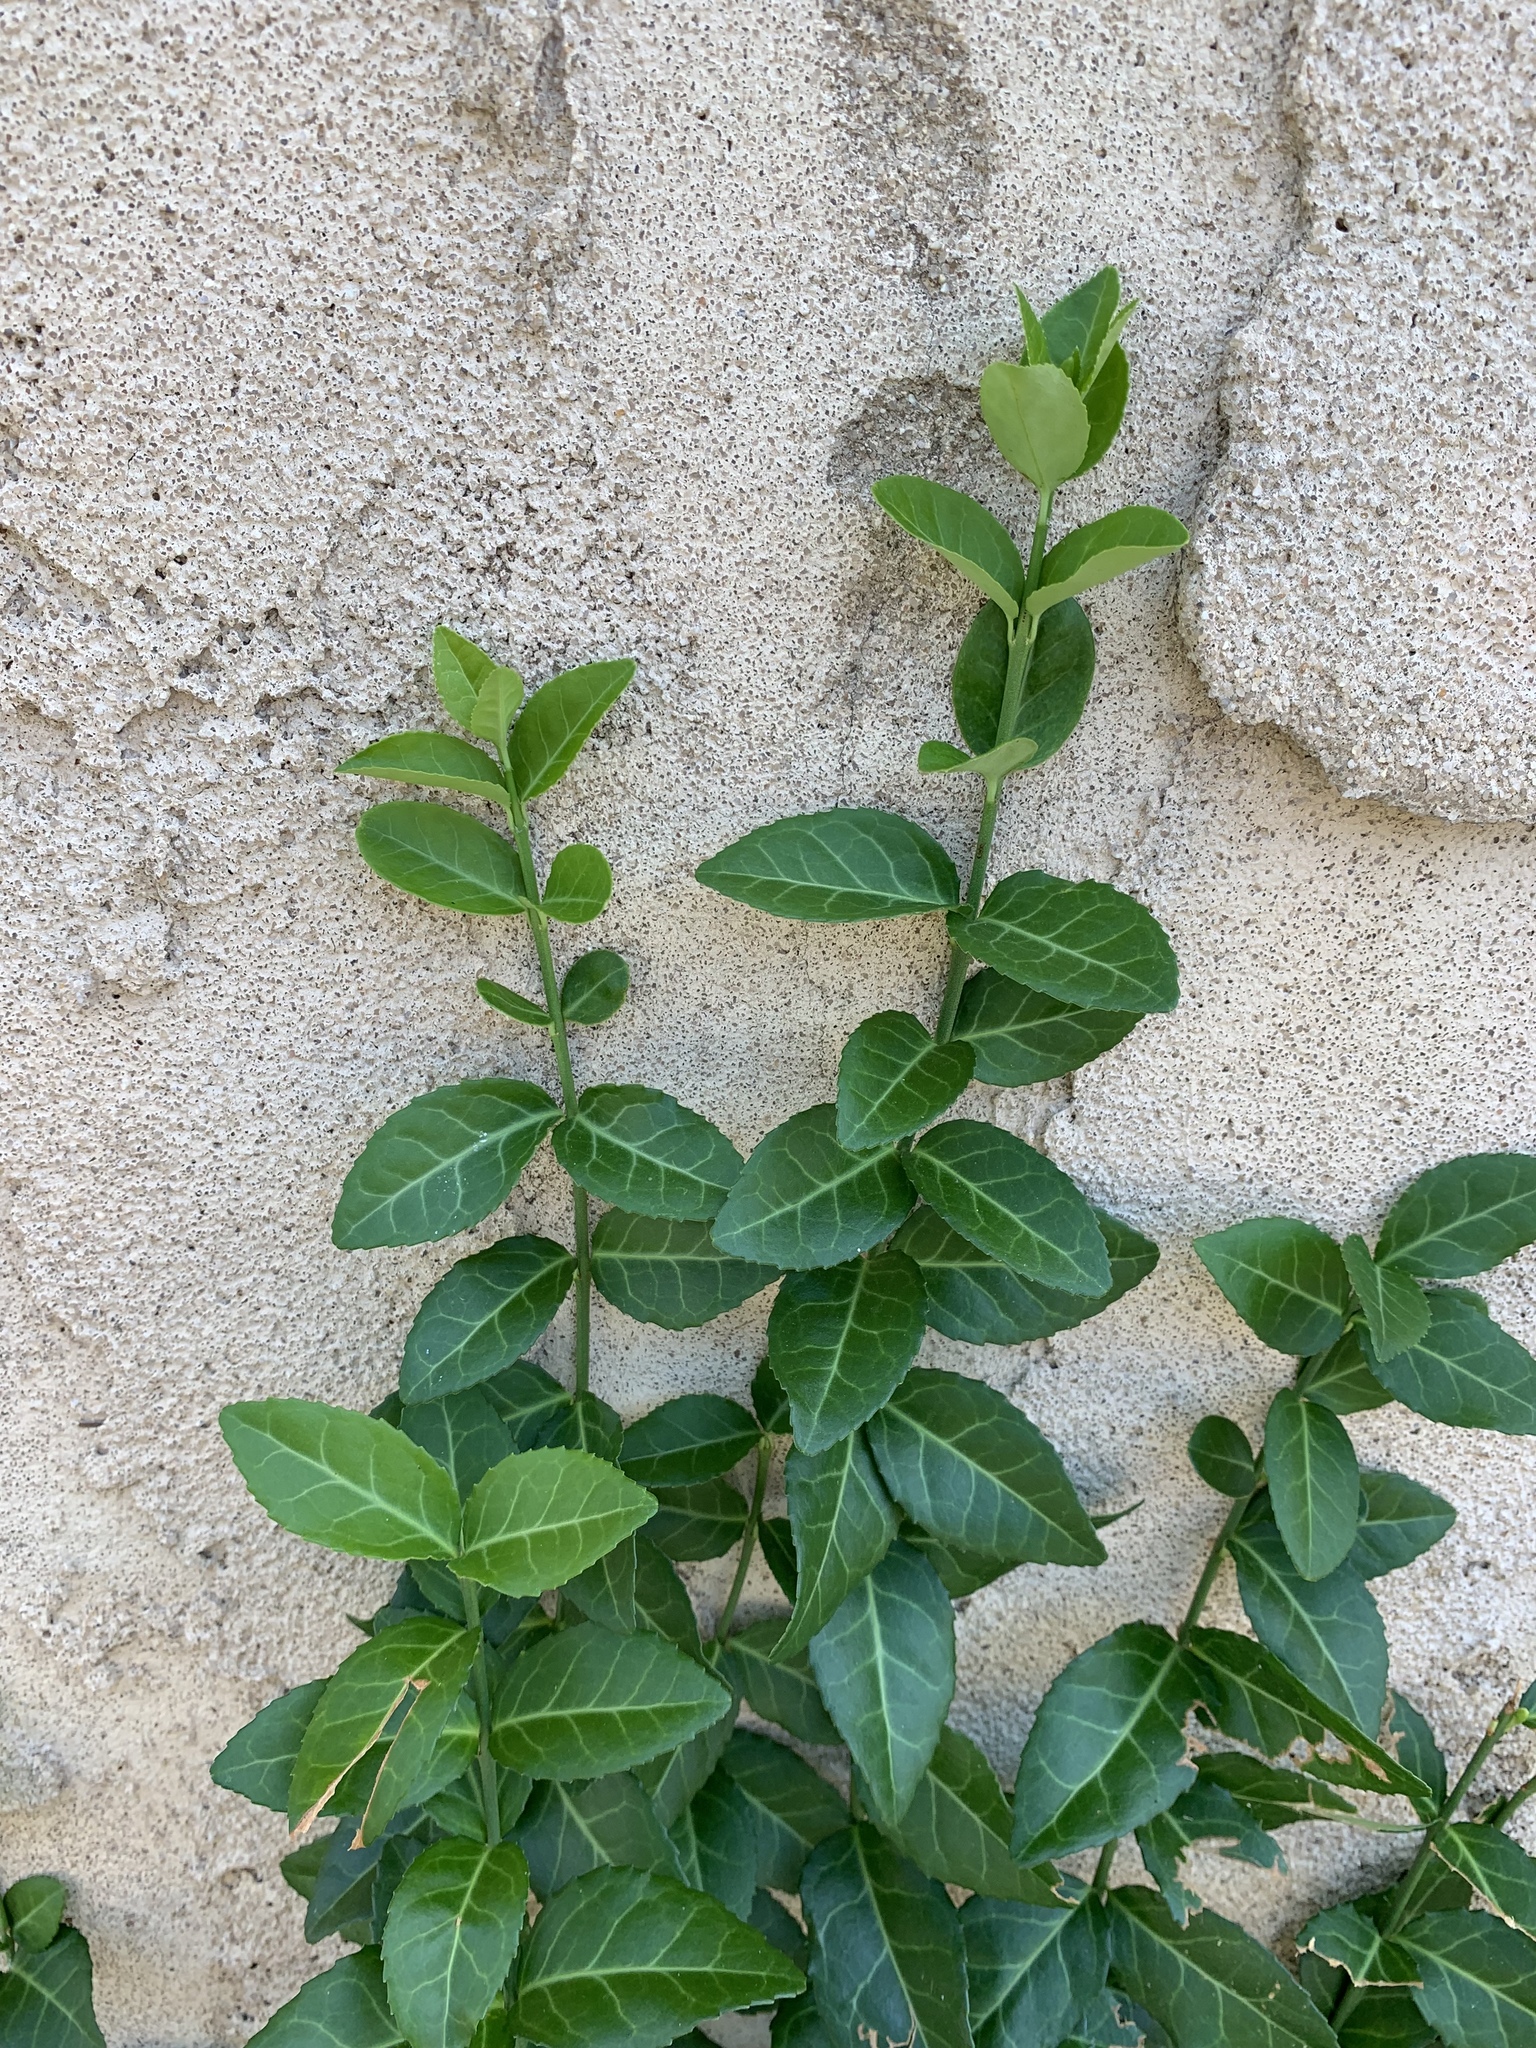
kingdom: Plantae
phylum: Tracheophyta
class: Magnoliopsida
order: Celastrales
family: Celastraceae
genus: Euonymus
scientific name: Euonymus fortunei
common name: Climbing euonymus
